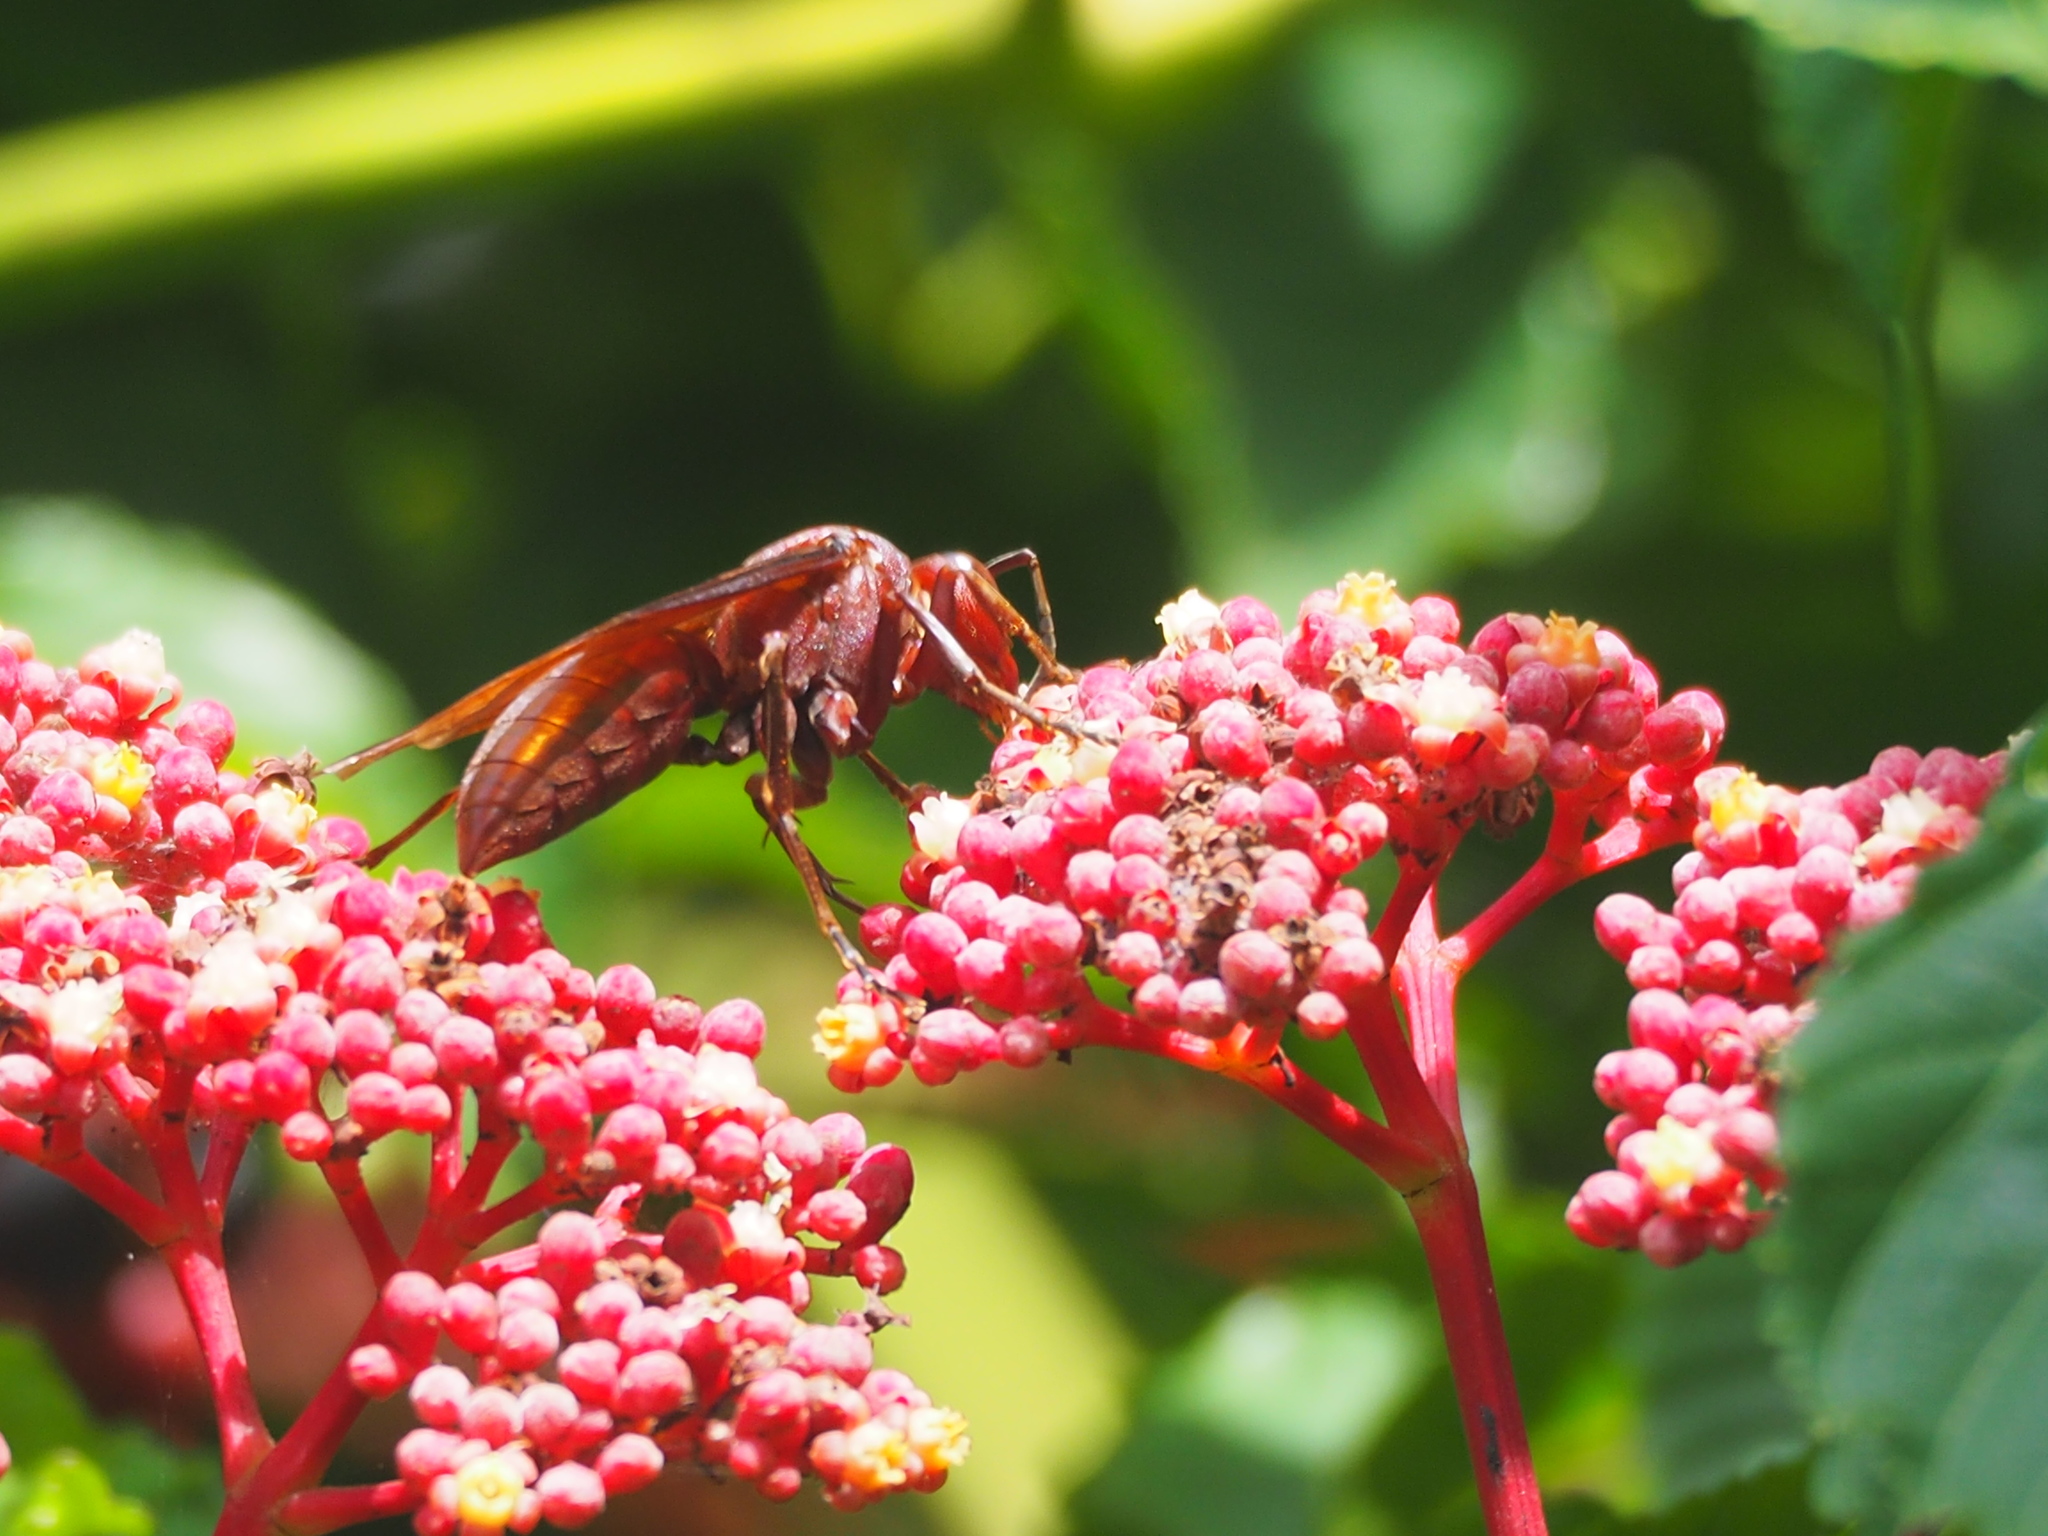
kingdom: Animalia
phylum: Arthropoda
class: Insecta
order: Hymenoptera
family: Eumenidae
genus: Polistes
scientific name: Polistes gigas
